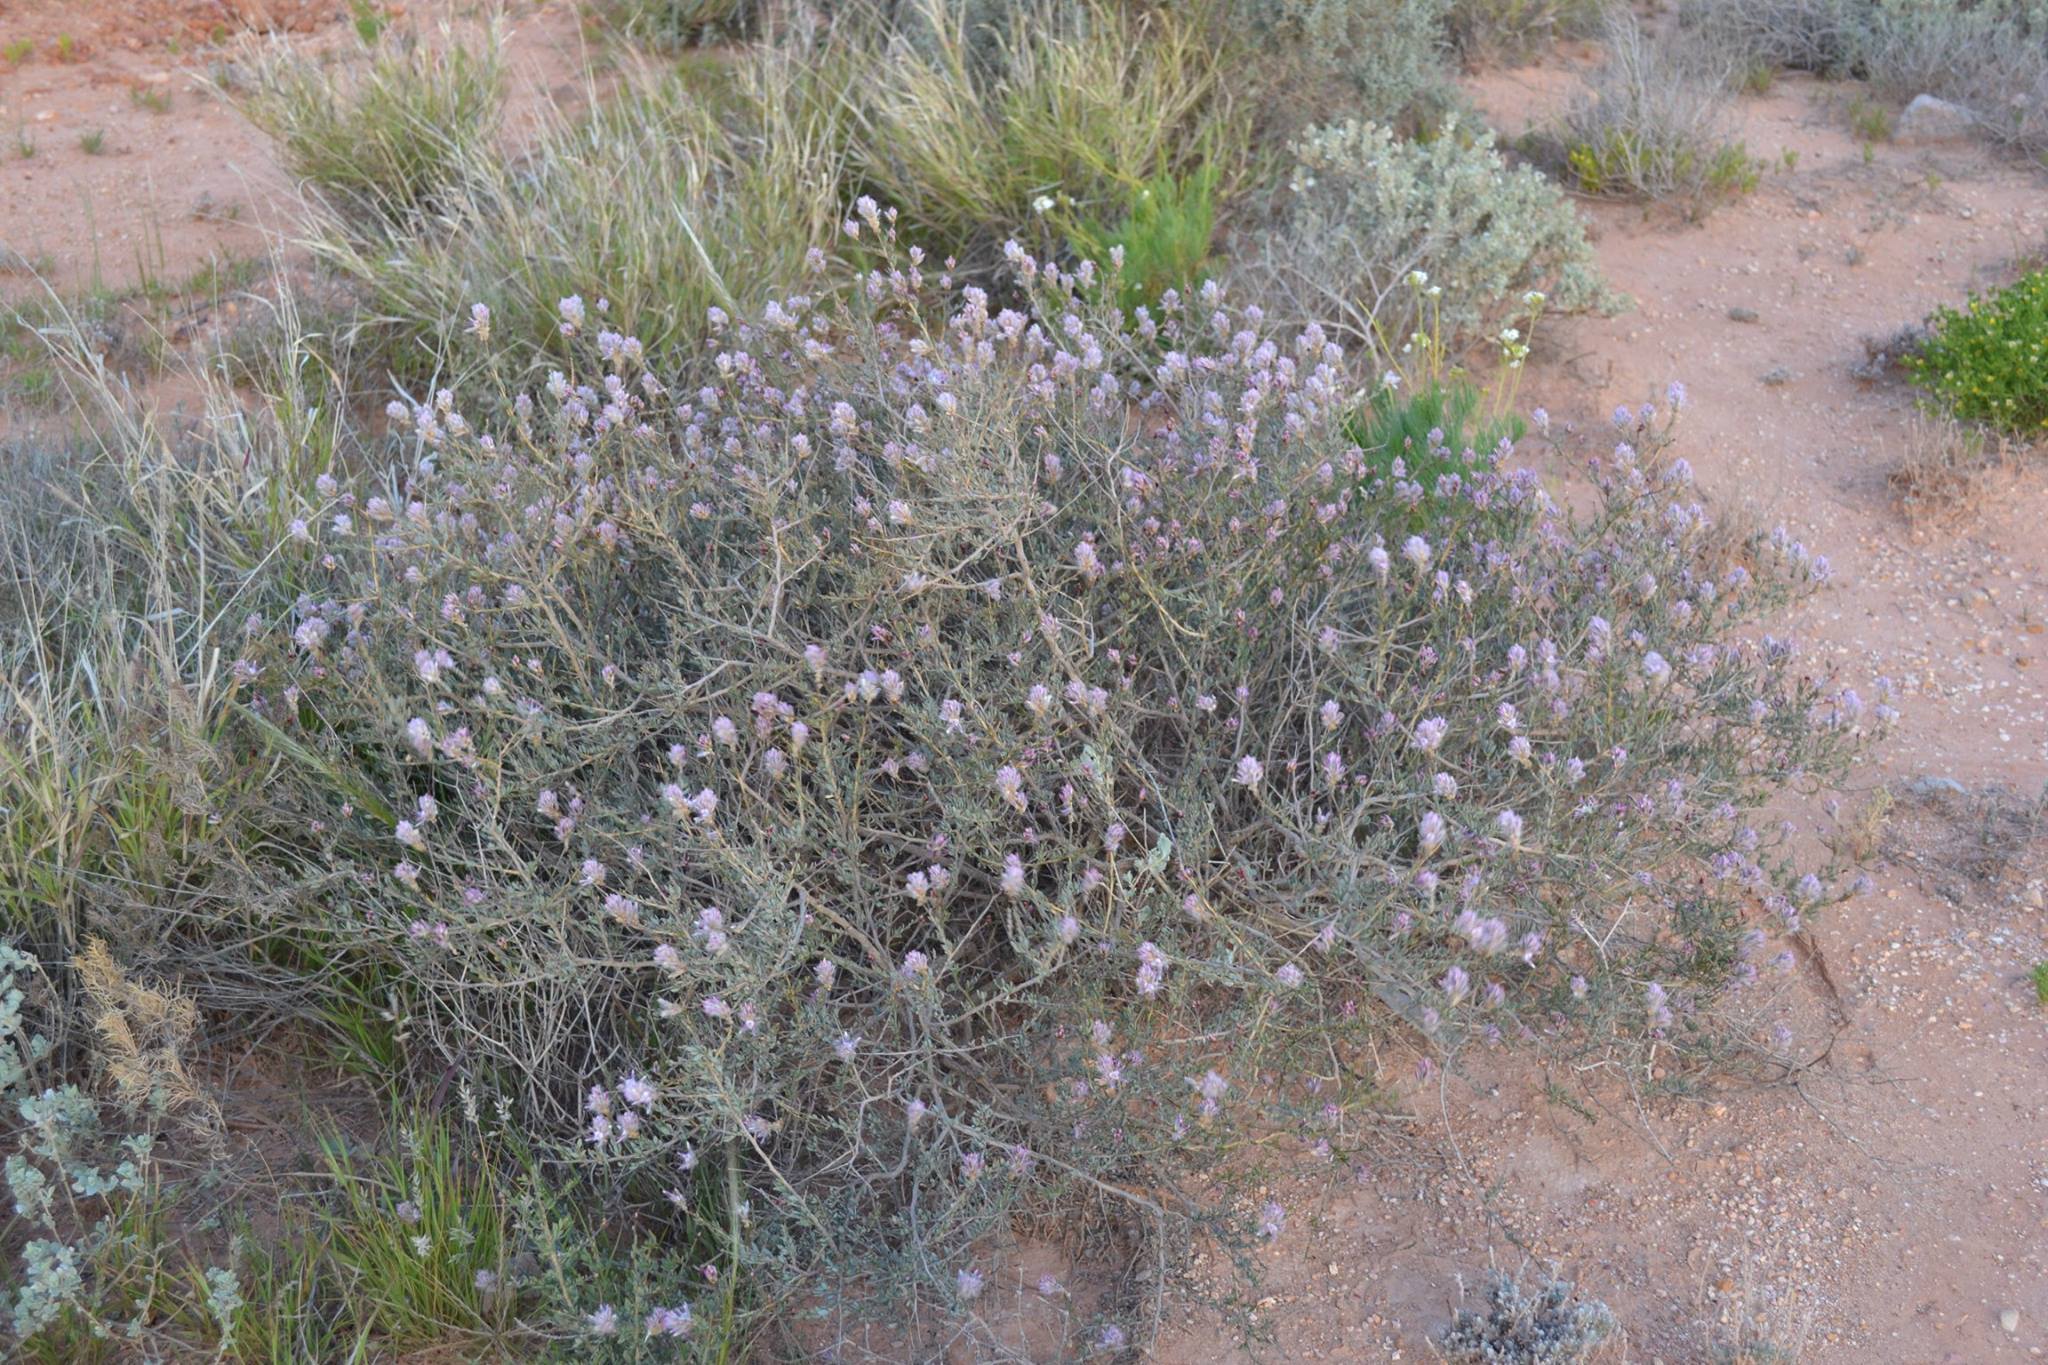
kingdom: Plantae
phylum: Tracheophyta
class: Magnoliopsida
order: Caryophyllales
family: Amaranthaceae
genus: Ptilotus
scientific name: Ptilotus whitei
